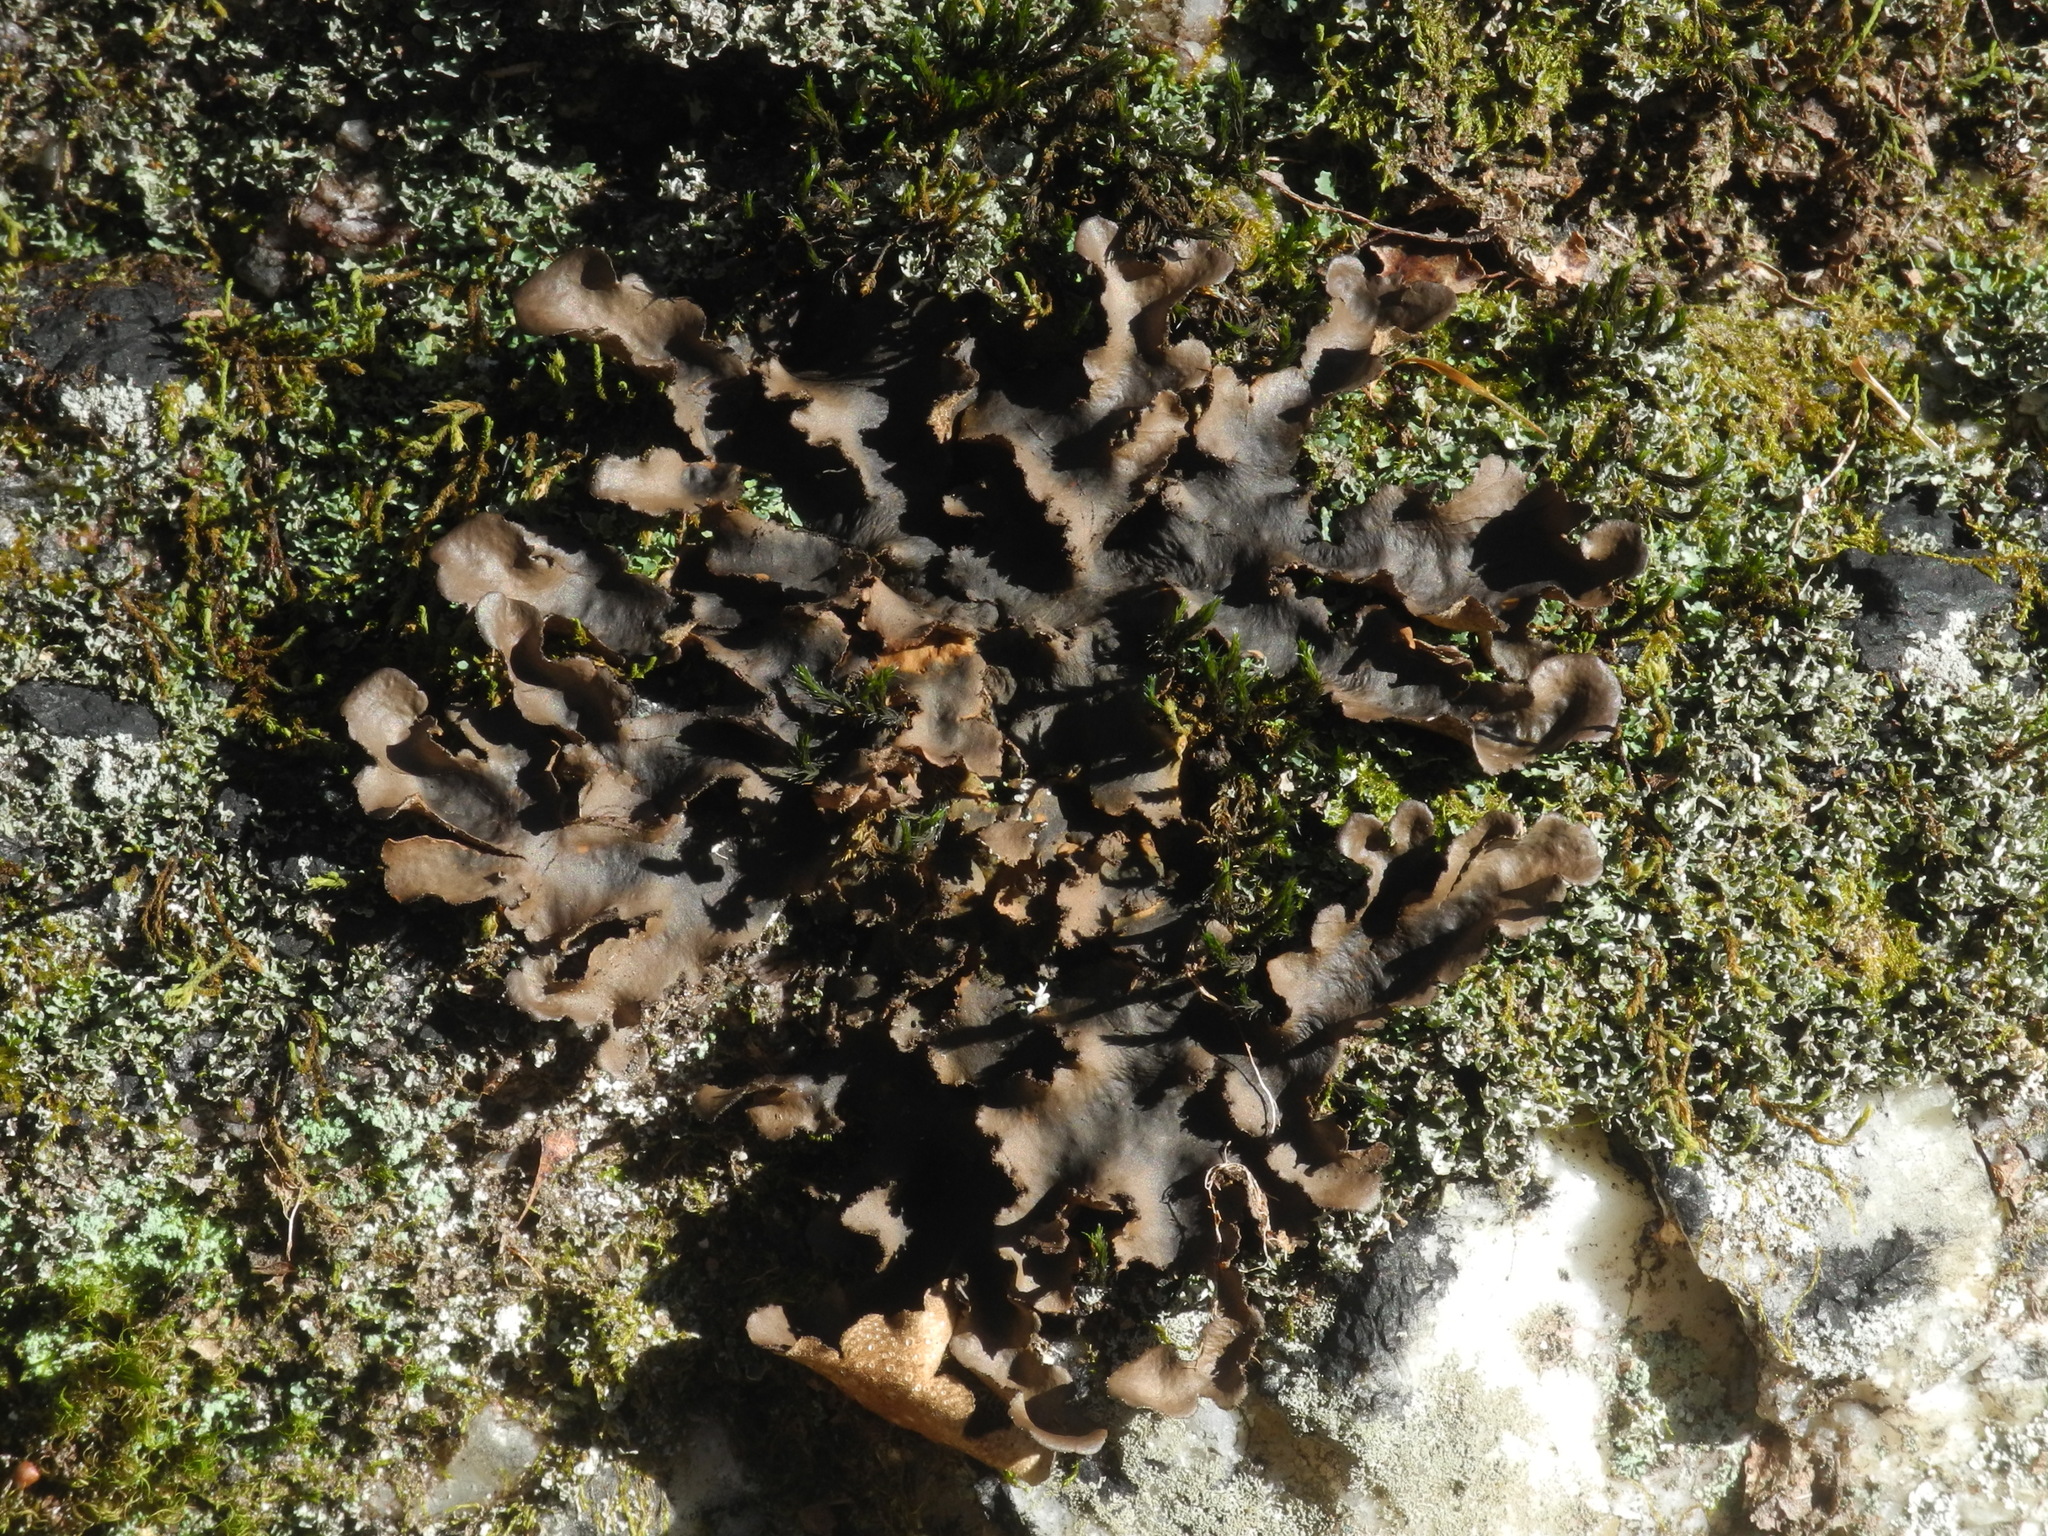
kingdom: Fungi
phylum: Ascomycota
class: Lecanoromycetes
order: Peltigerales
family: Lobariaceae
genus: Sticta
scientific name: Sticta beauvoisii
